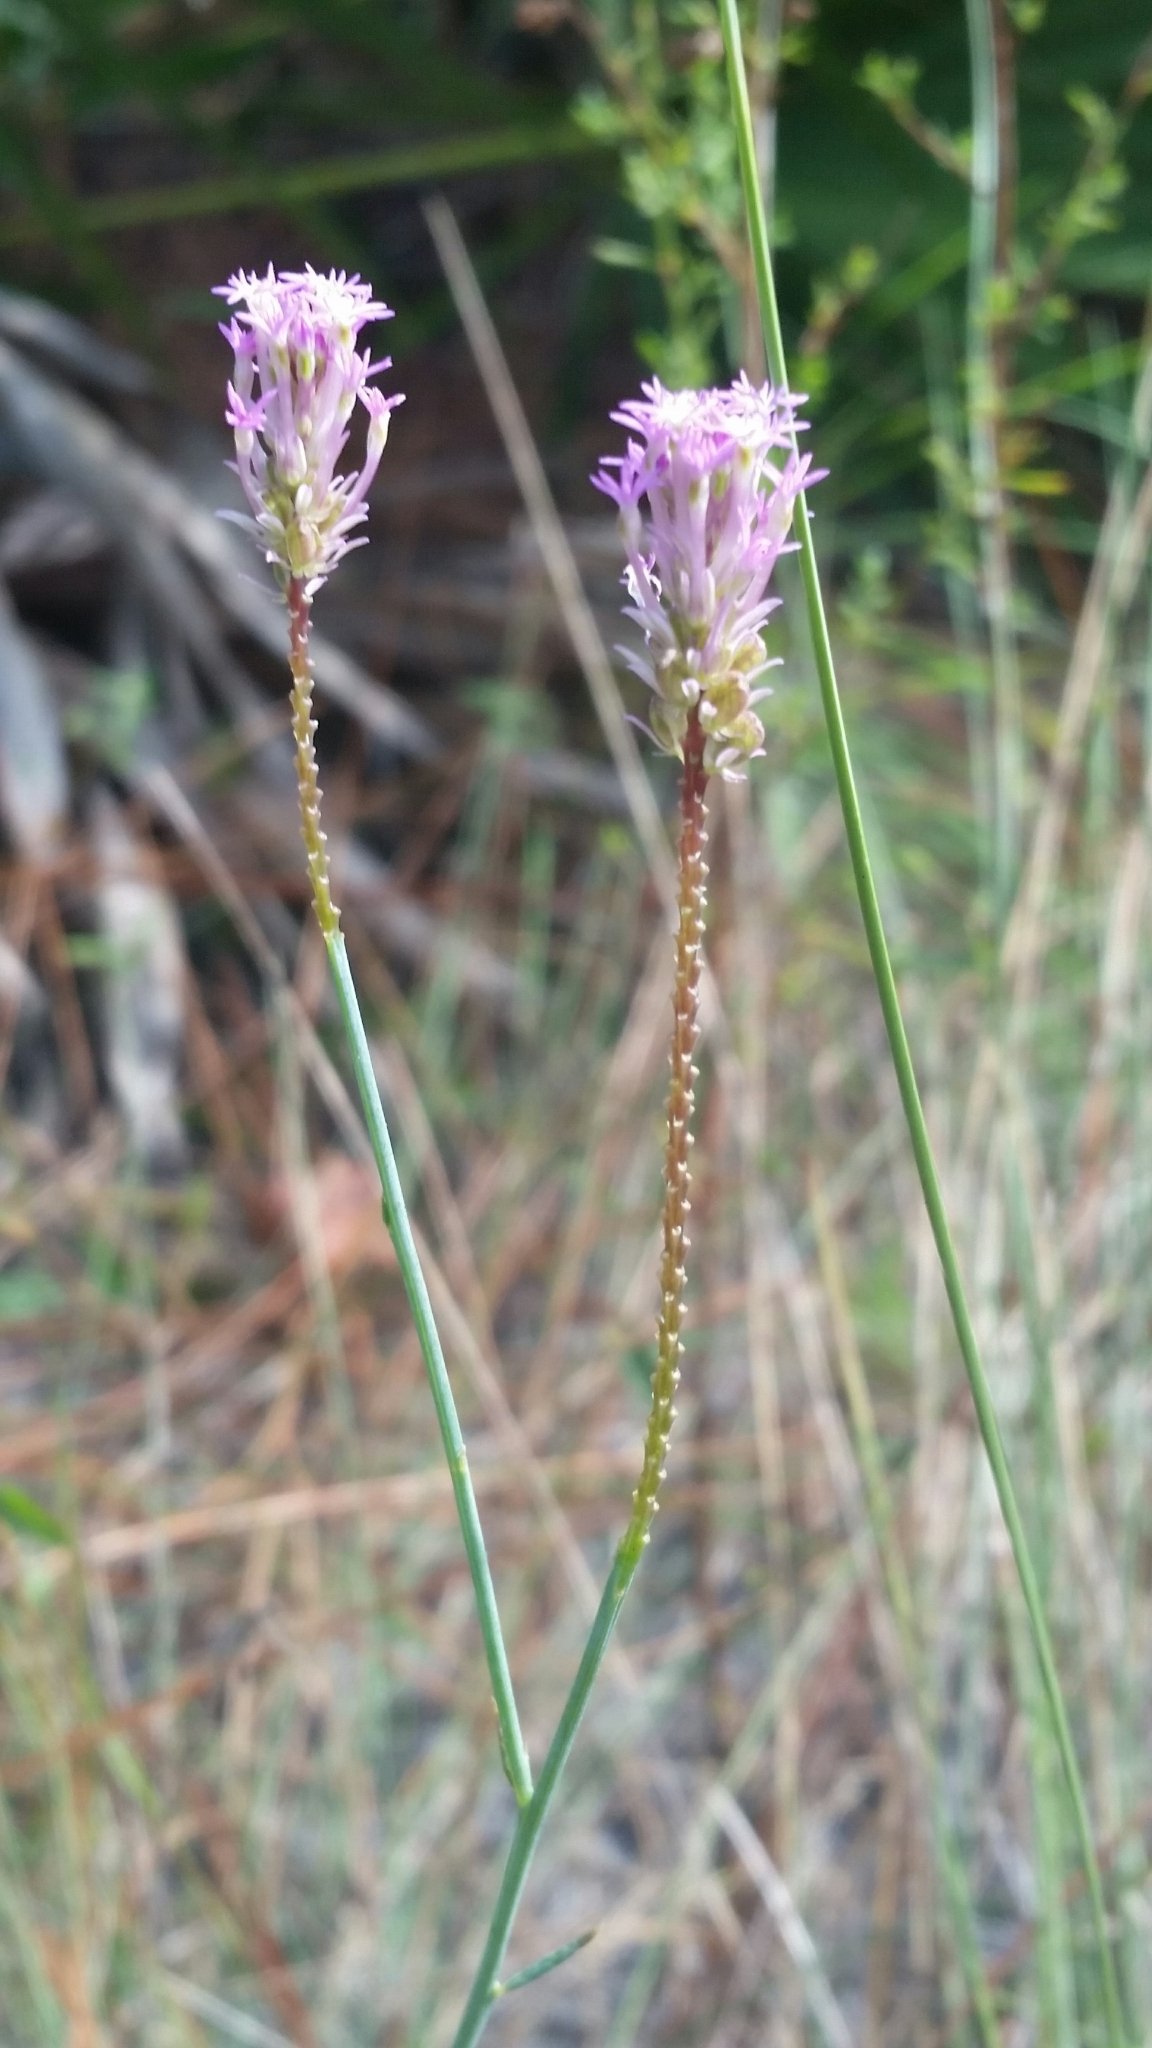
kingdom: Plantae
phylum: Tracheophyta
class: Magnoliopsida
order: Fabales
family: Polygalaceae
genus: Polygala
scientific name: Polygala incarnata
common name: Pink milkwort
